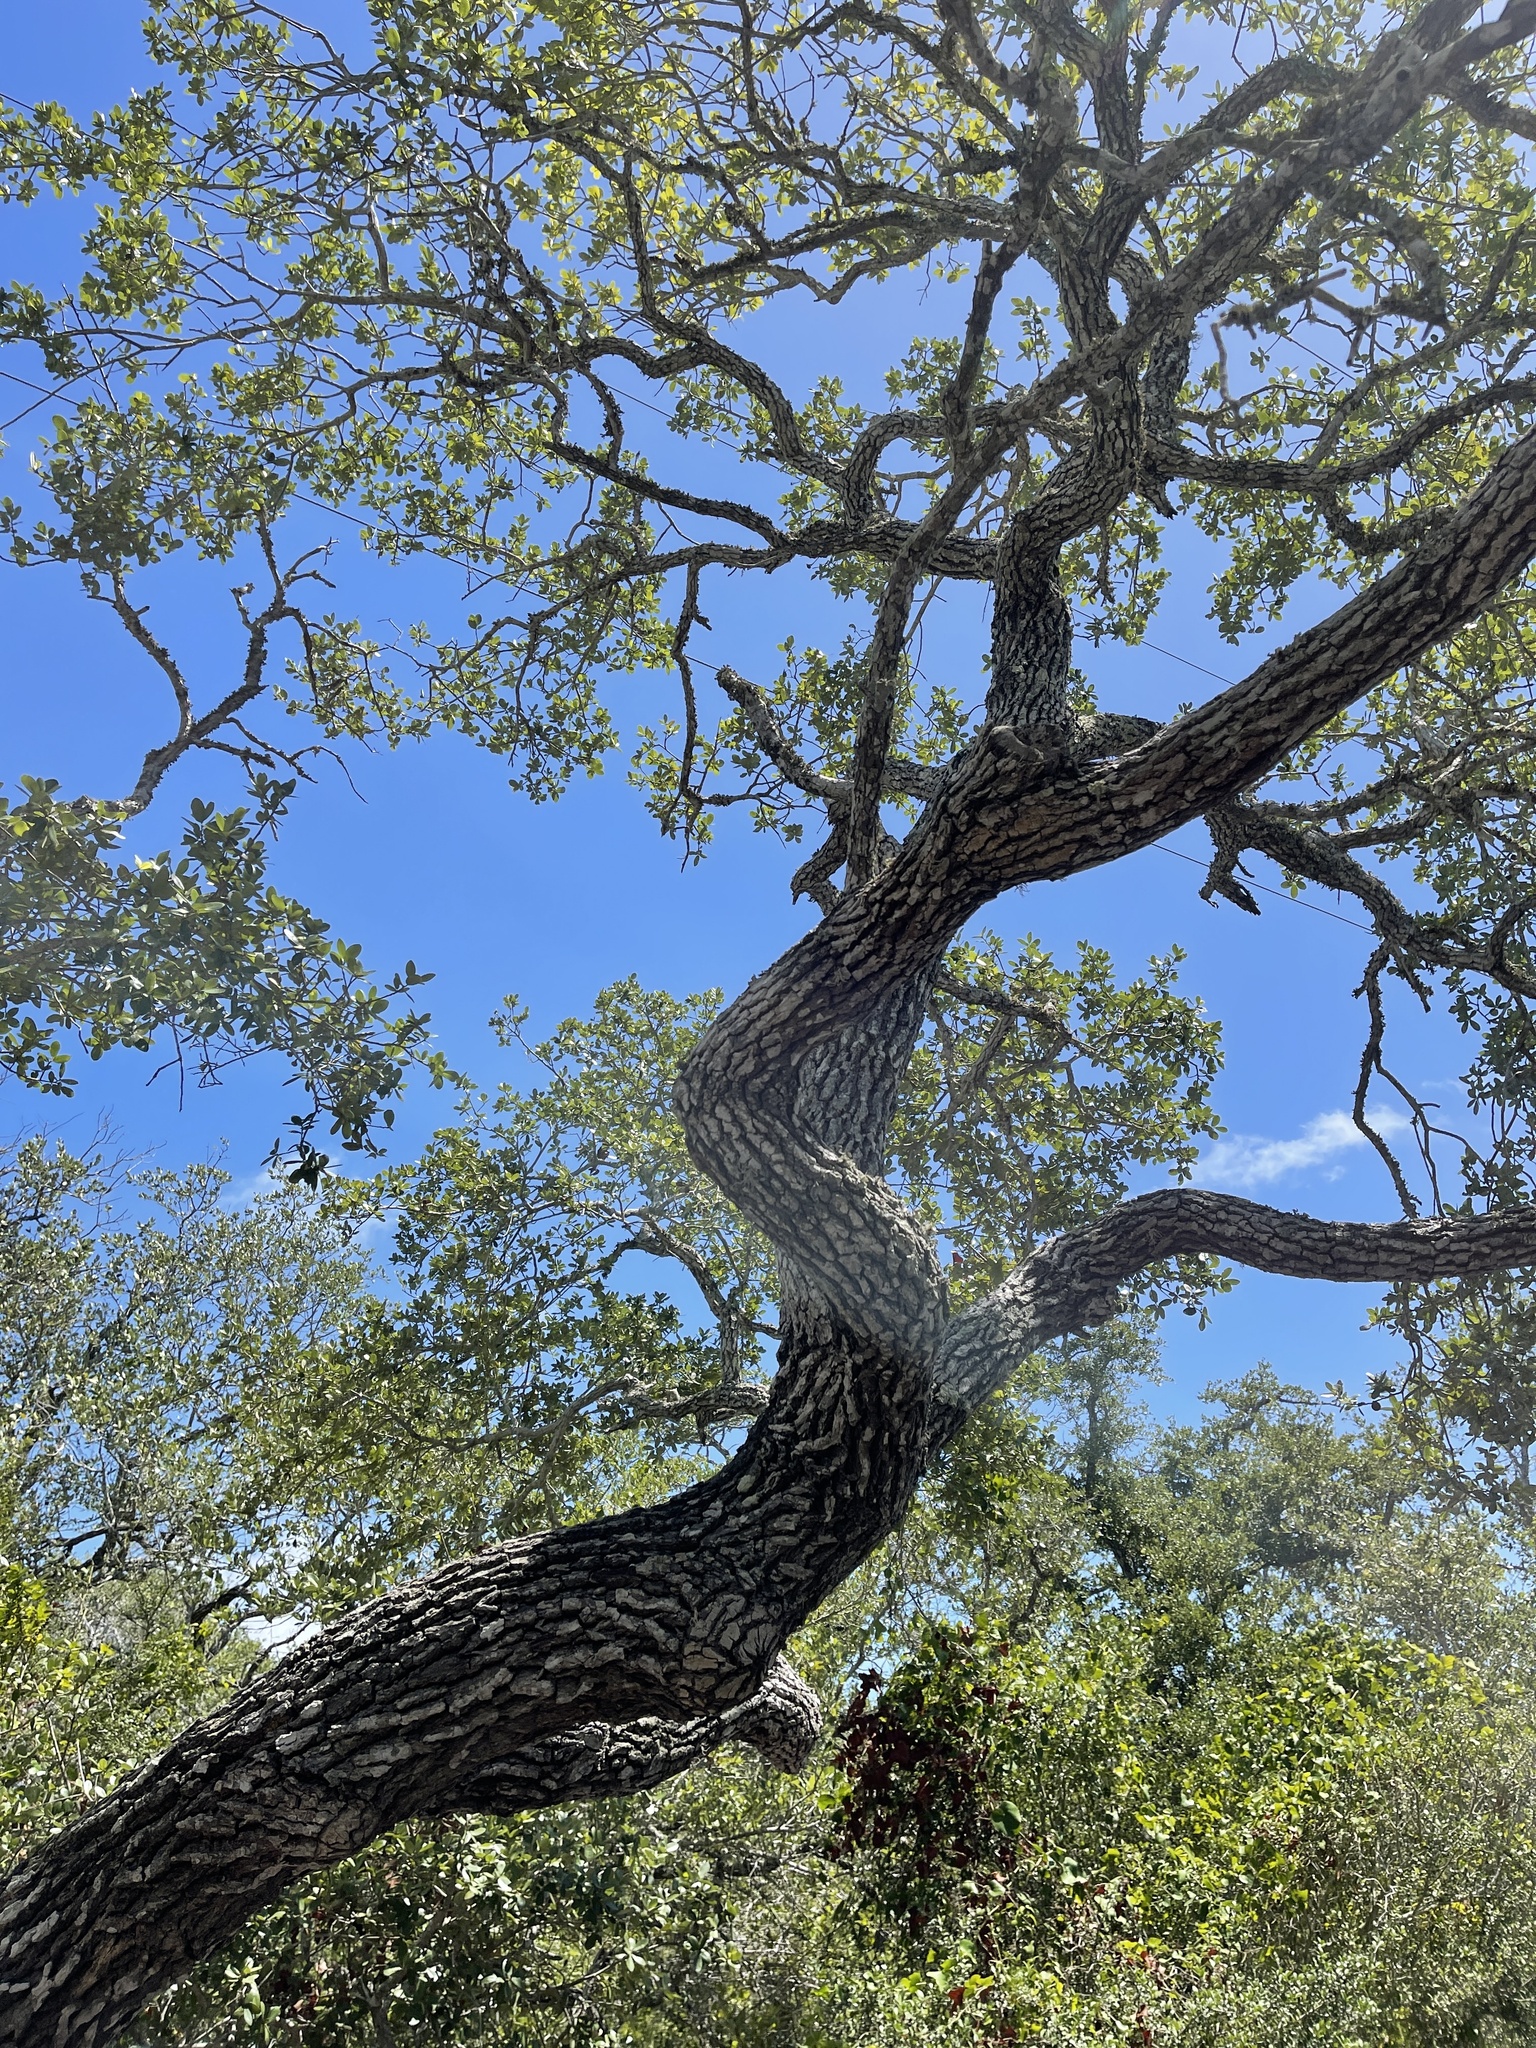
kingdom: Plantae
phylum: Tracheophyta
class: Magnoliopsida
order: Fagales
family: Fagaceae
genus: Quercus
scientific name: Quercus fusiformis
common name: Texas live oak
